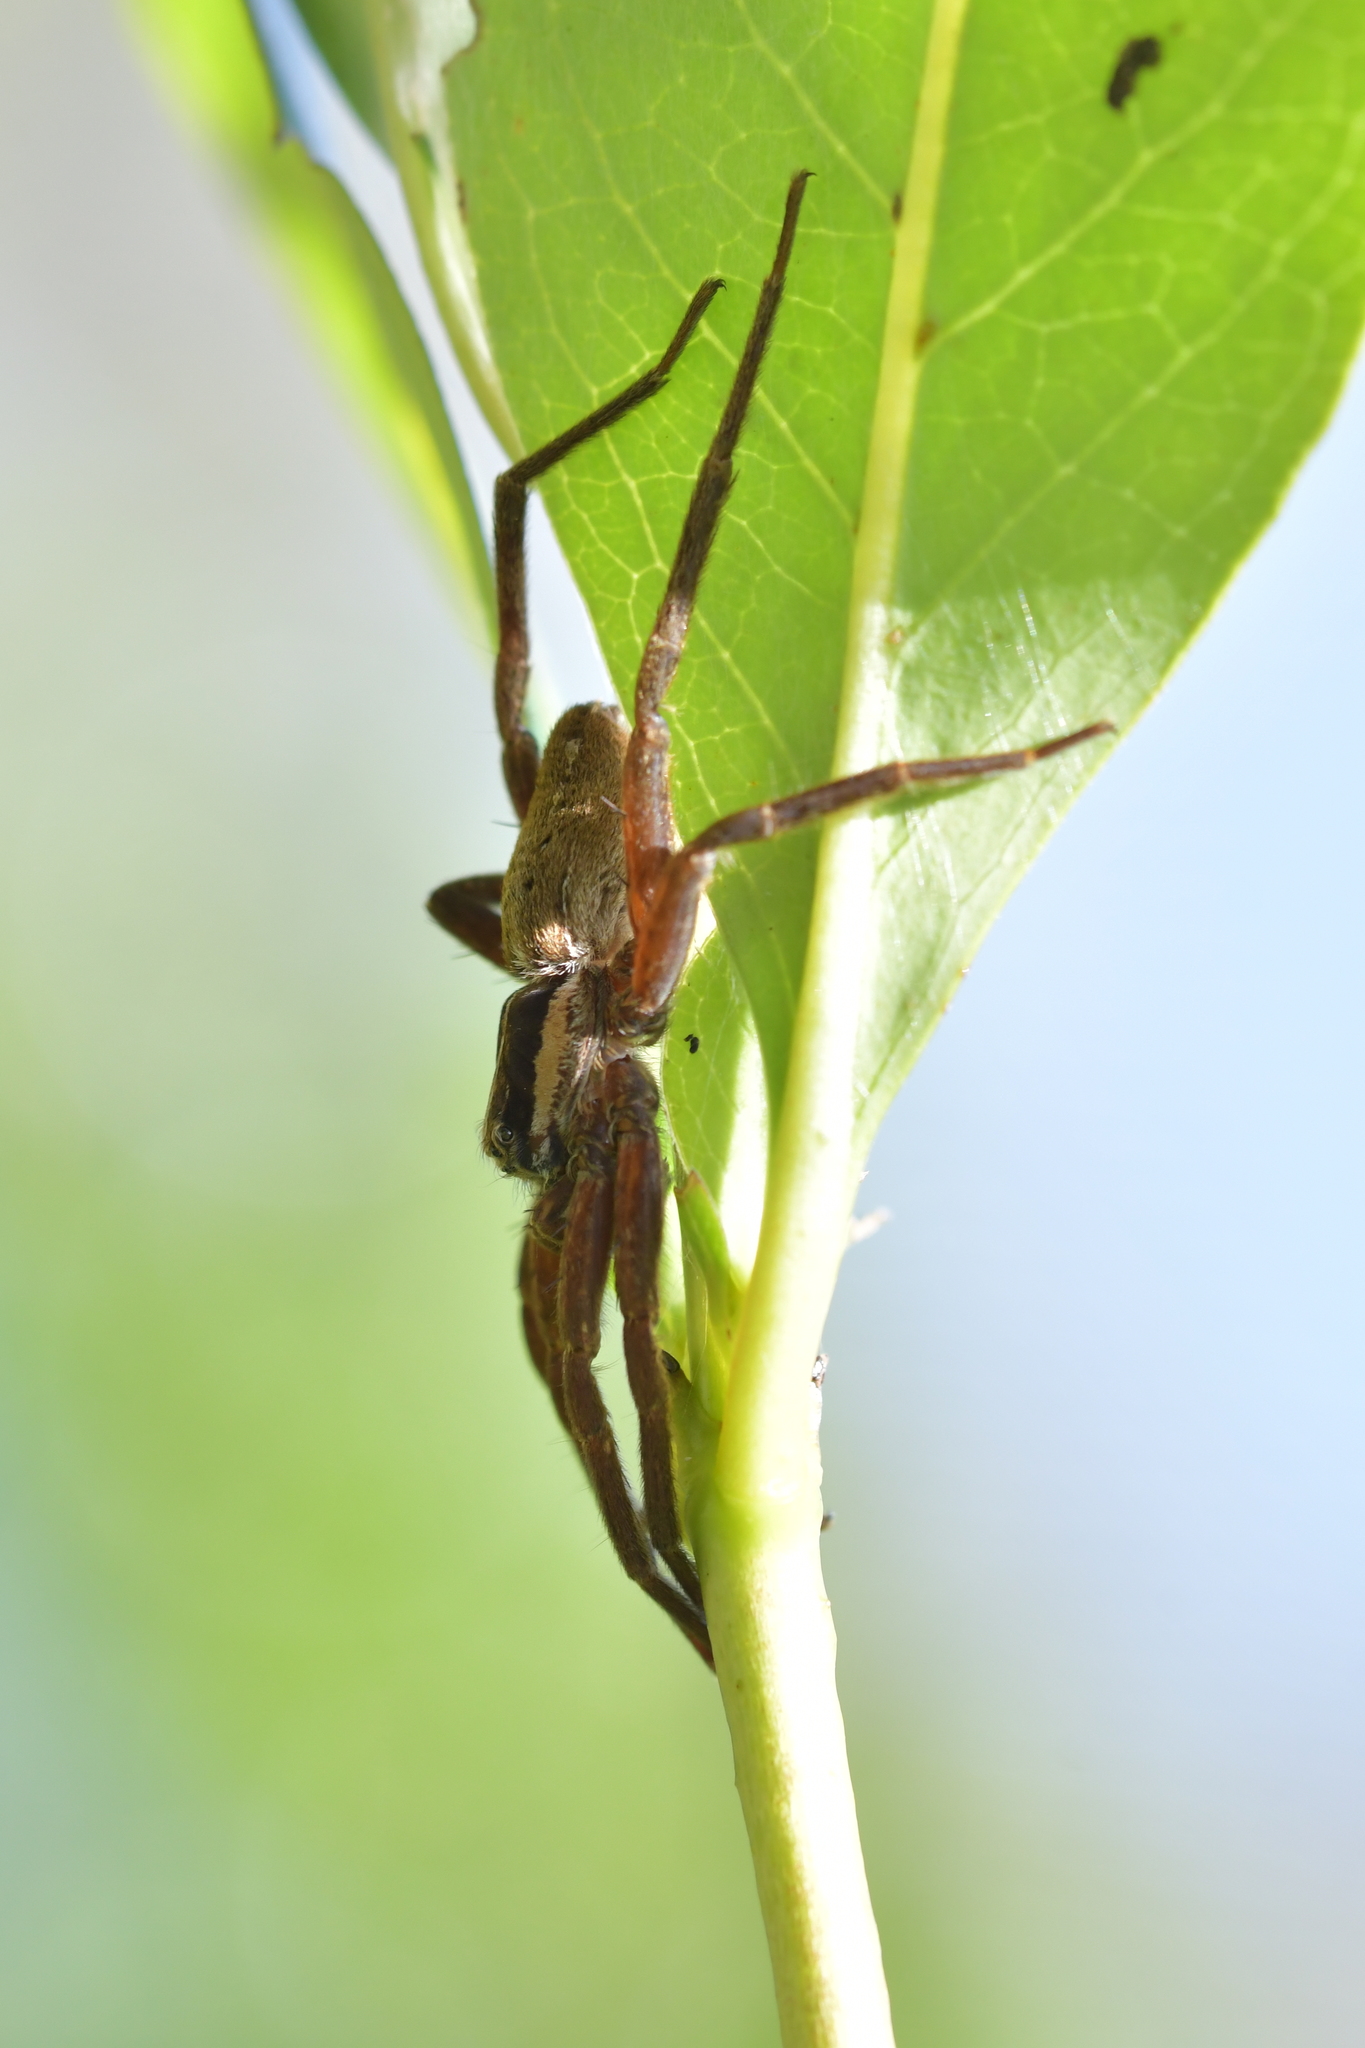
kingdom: Animalia
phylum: Arthropoda
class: Arachnida
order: Araneae
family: Pisauridae
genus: Dolomedes
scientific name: Dolomedes minor
